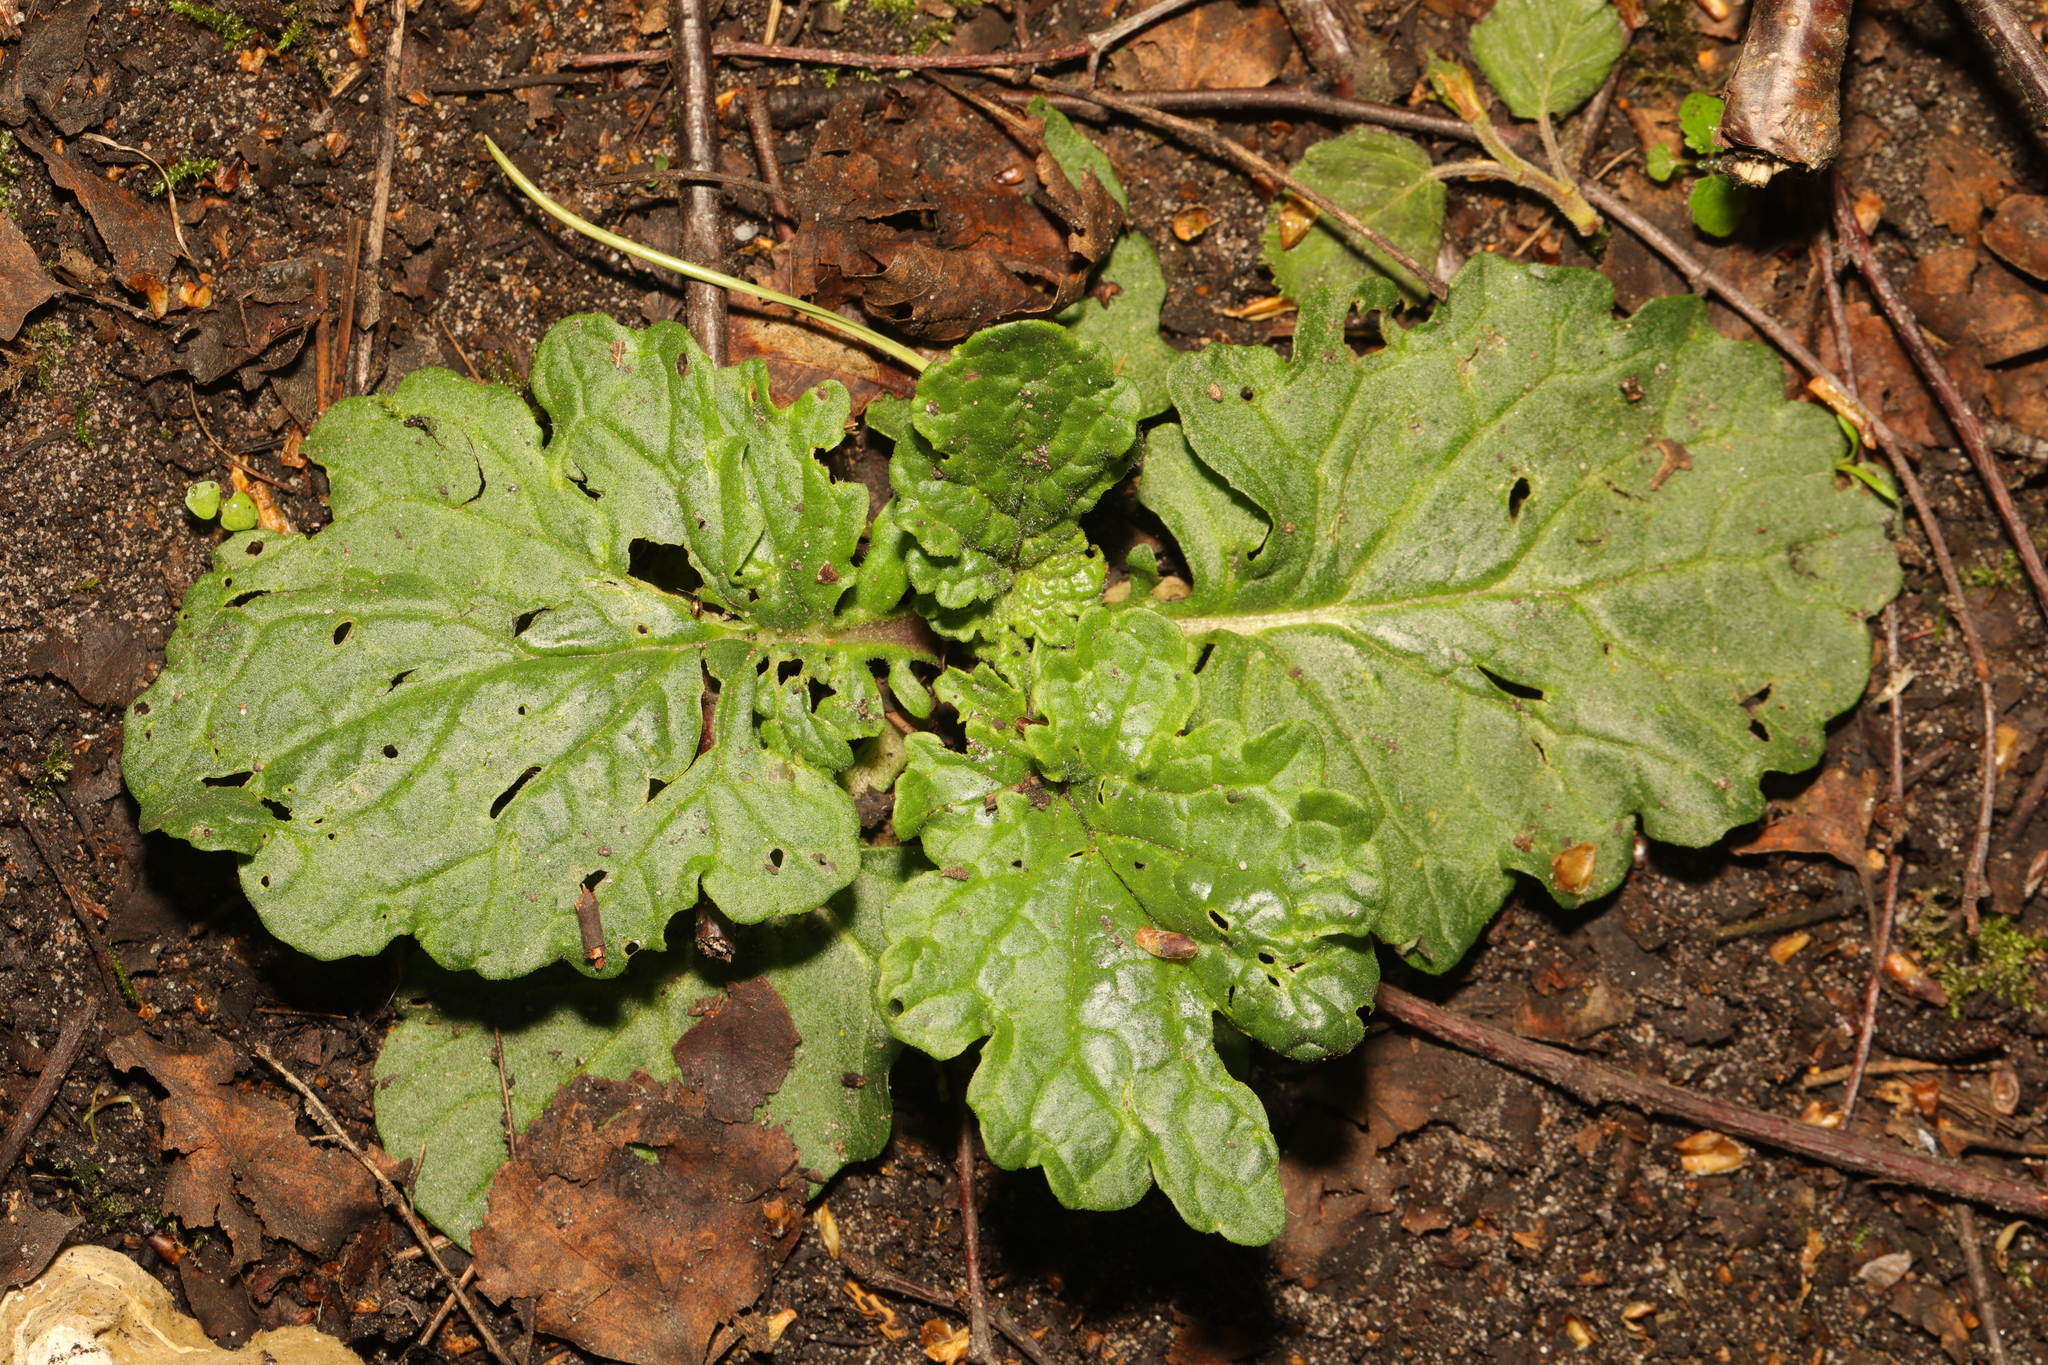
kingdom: Plantae
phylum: Tracheophyta
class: Magnoliopsida
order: Asterales
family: Asteraceae
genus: Jacobaea
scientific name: Jacobaea vulgaris
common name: Stinking willie
